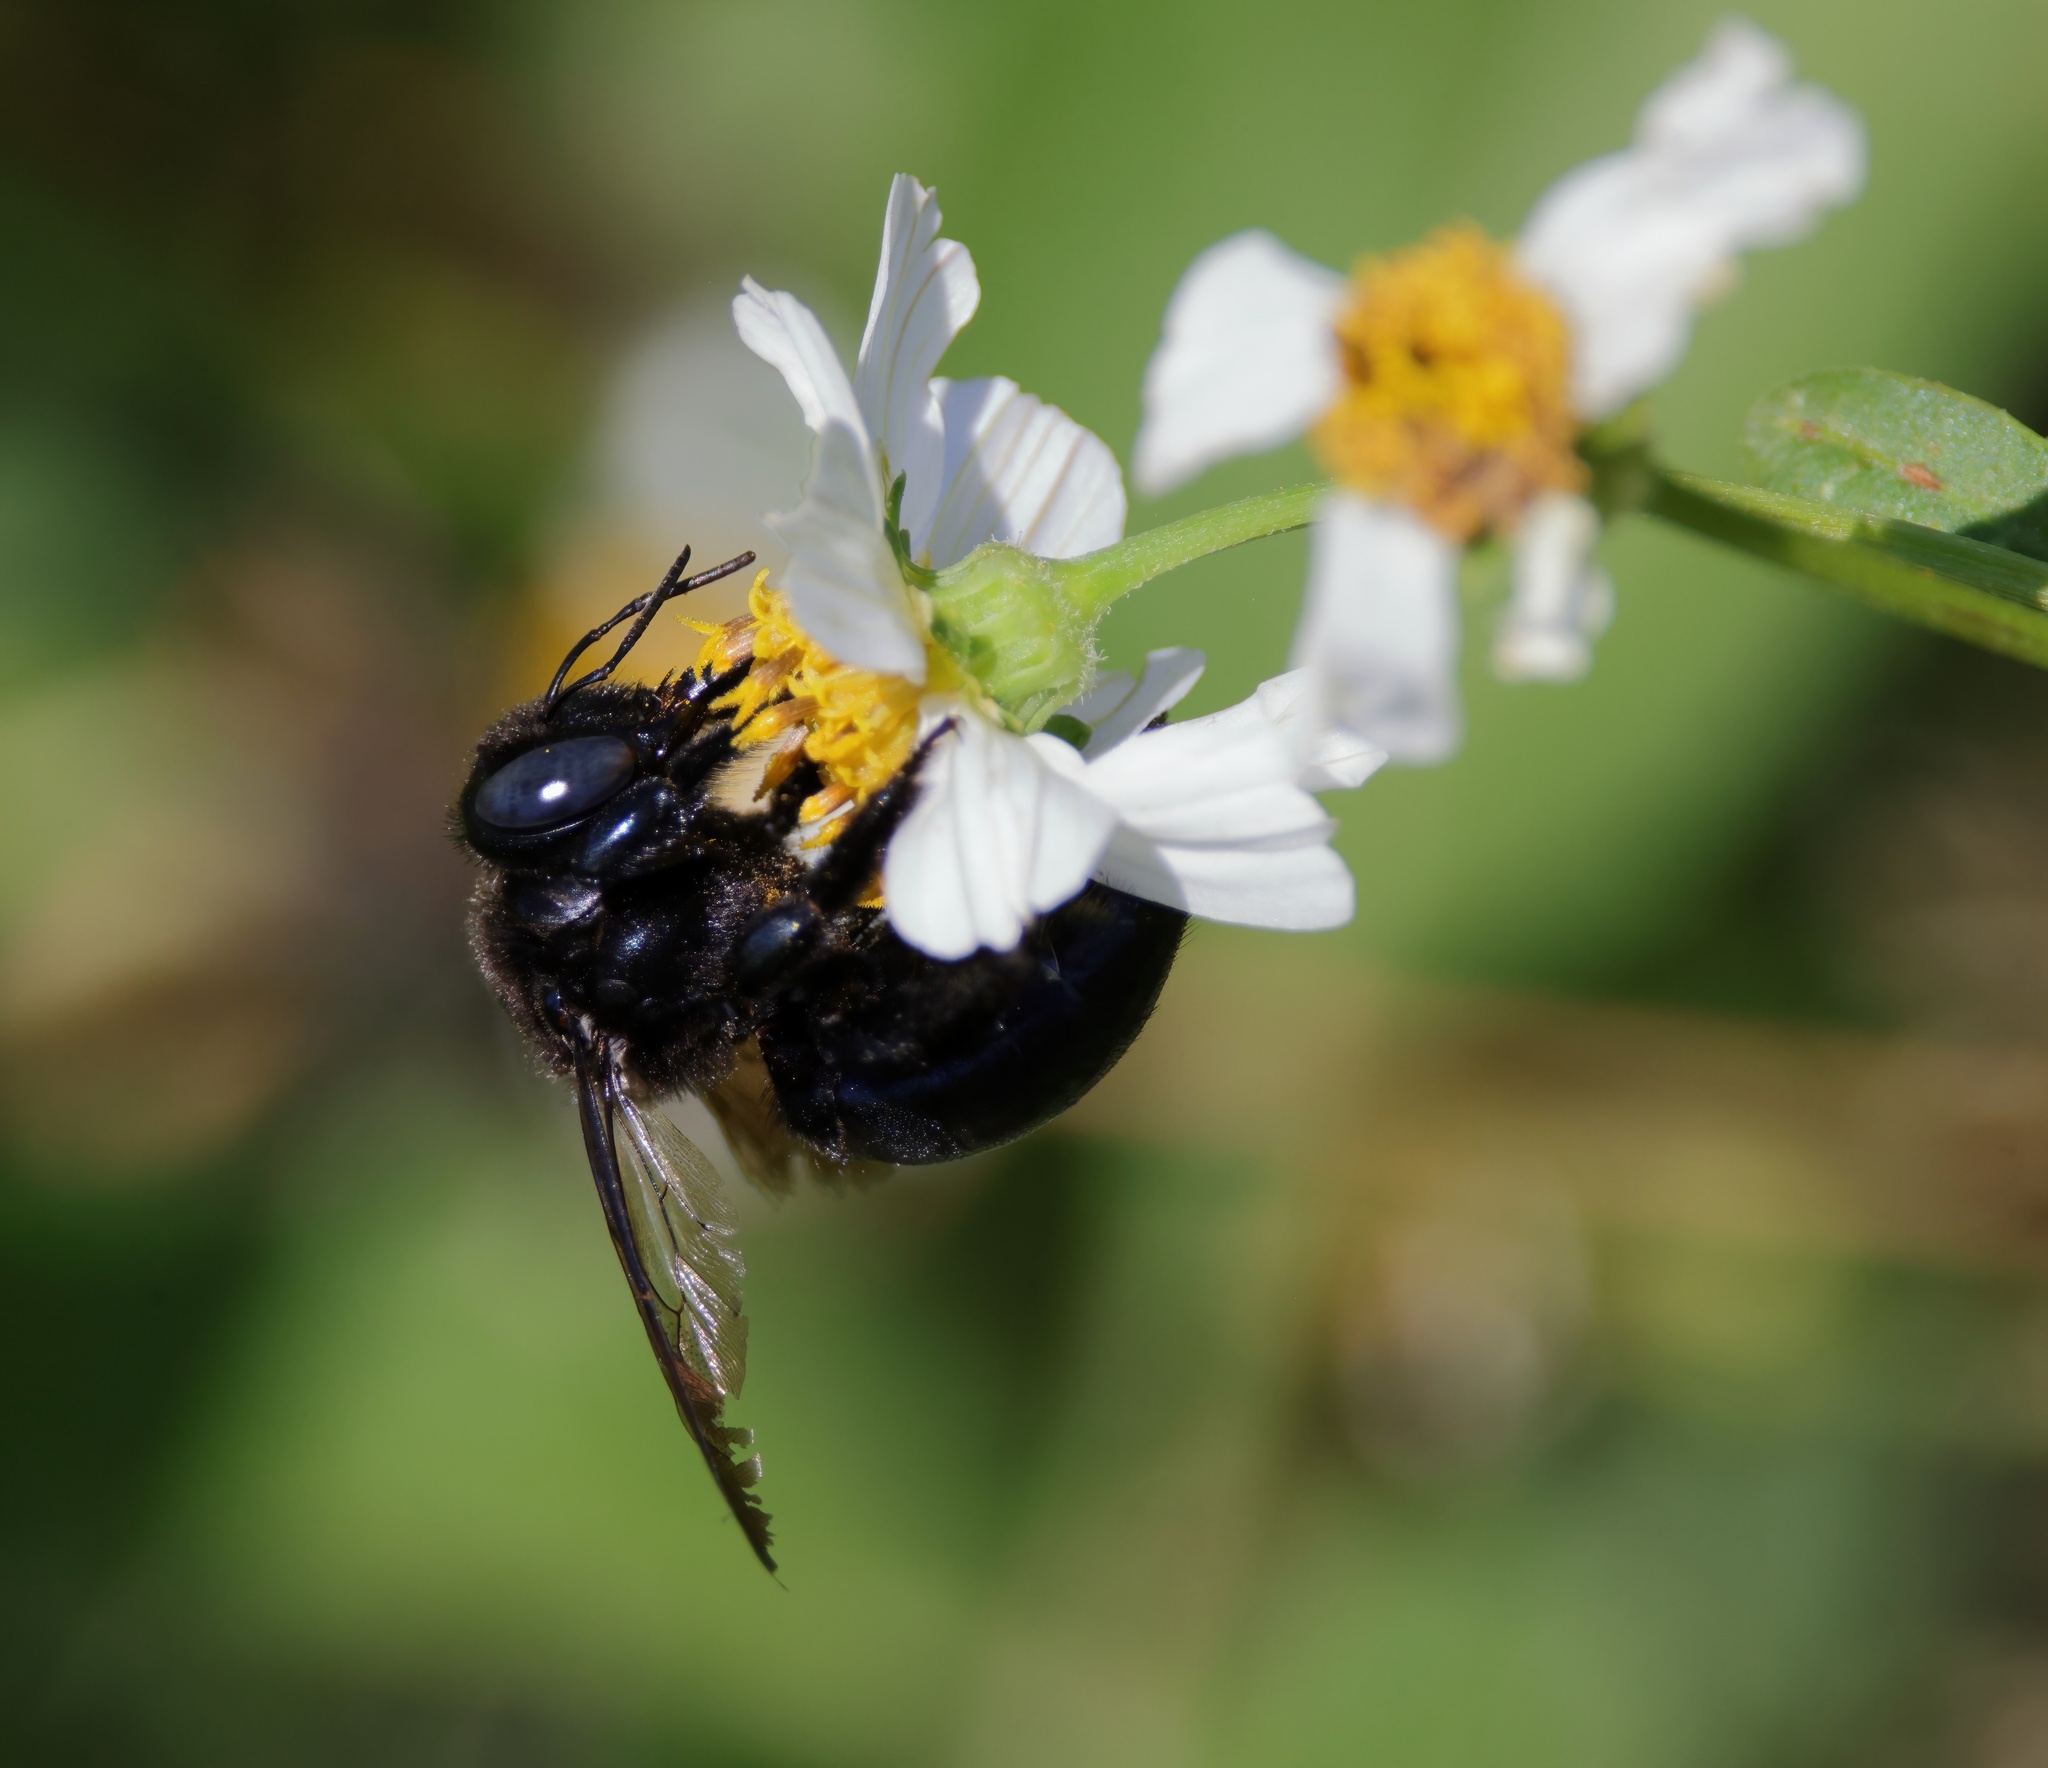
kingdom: Animalia
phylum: Arthropoda
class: Insecta
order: Hymenoptera
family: Apidae
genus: Xylocopa
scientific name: Xylocopa micans
